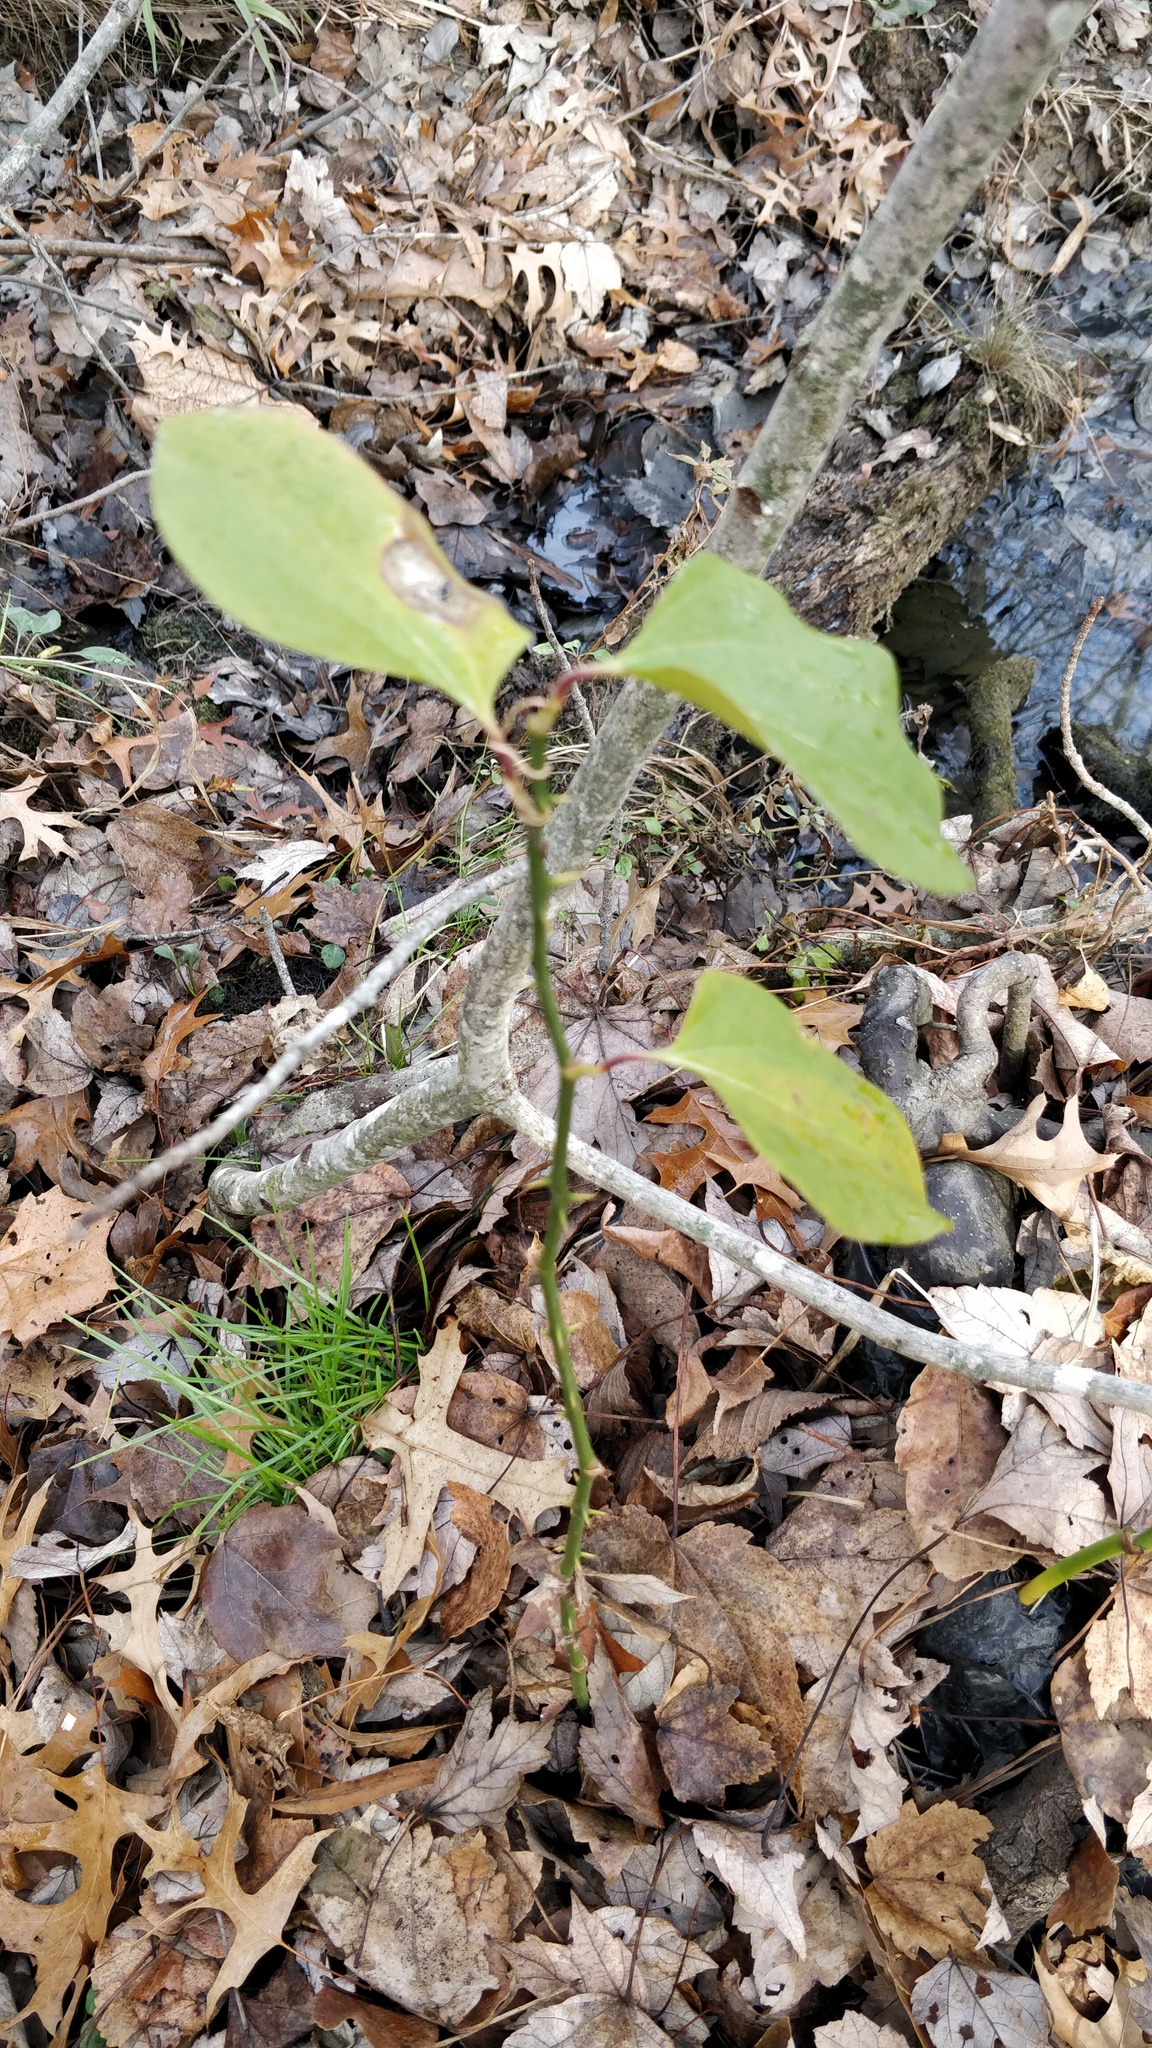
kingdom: Plantae
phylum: Tracheophyta
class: Liliopsida
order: Liliales
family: Smilacaceae
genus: Smilax
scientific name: Smilax rotundifolia
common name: Bullbriar
